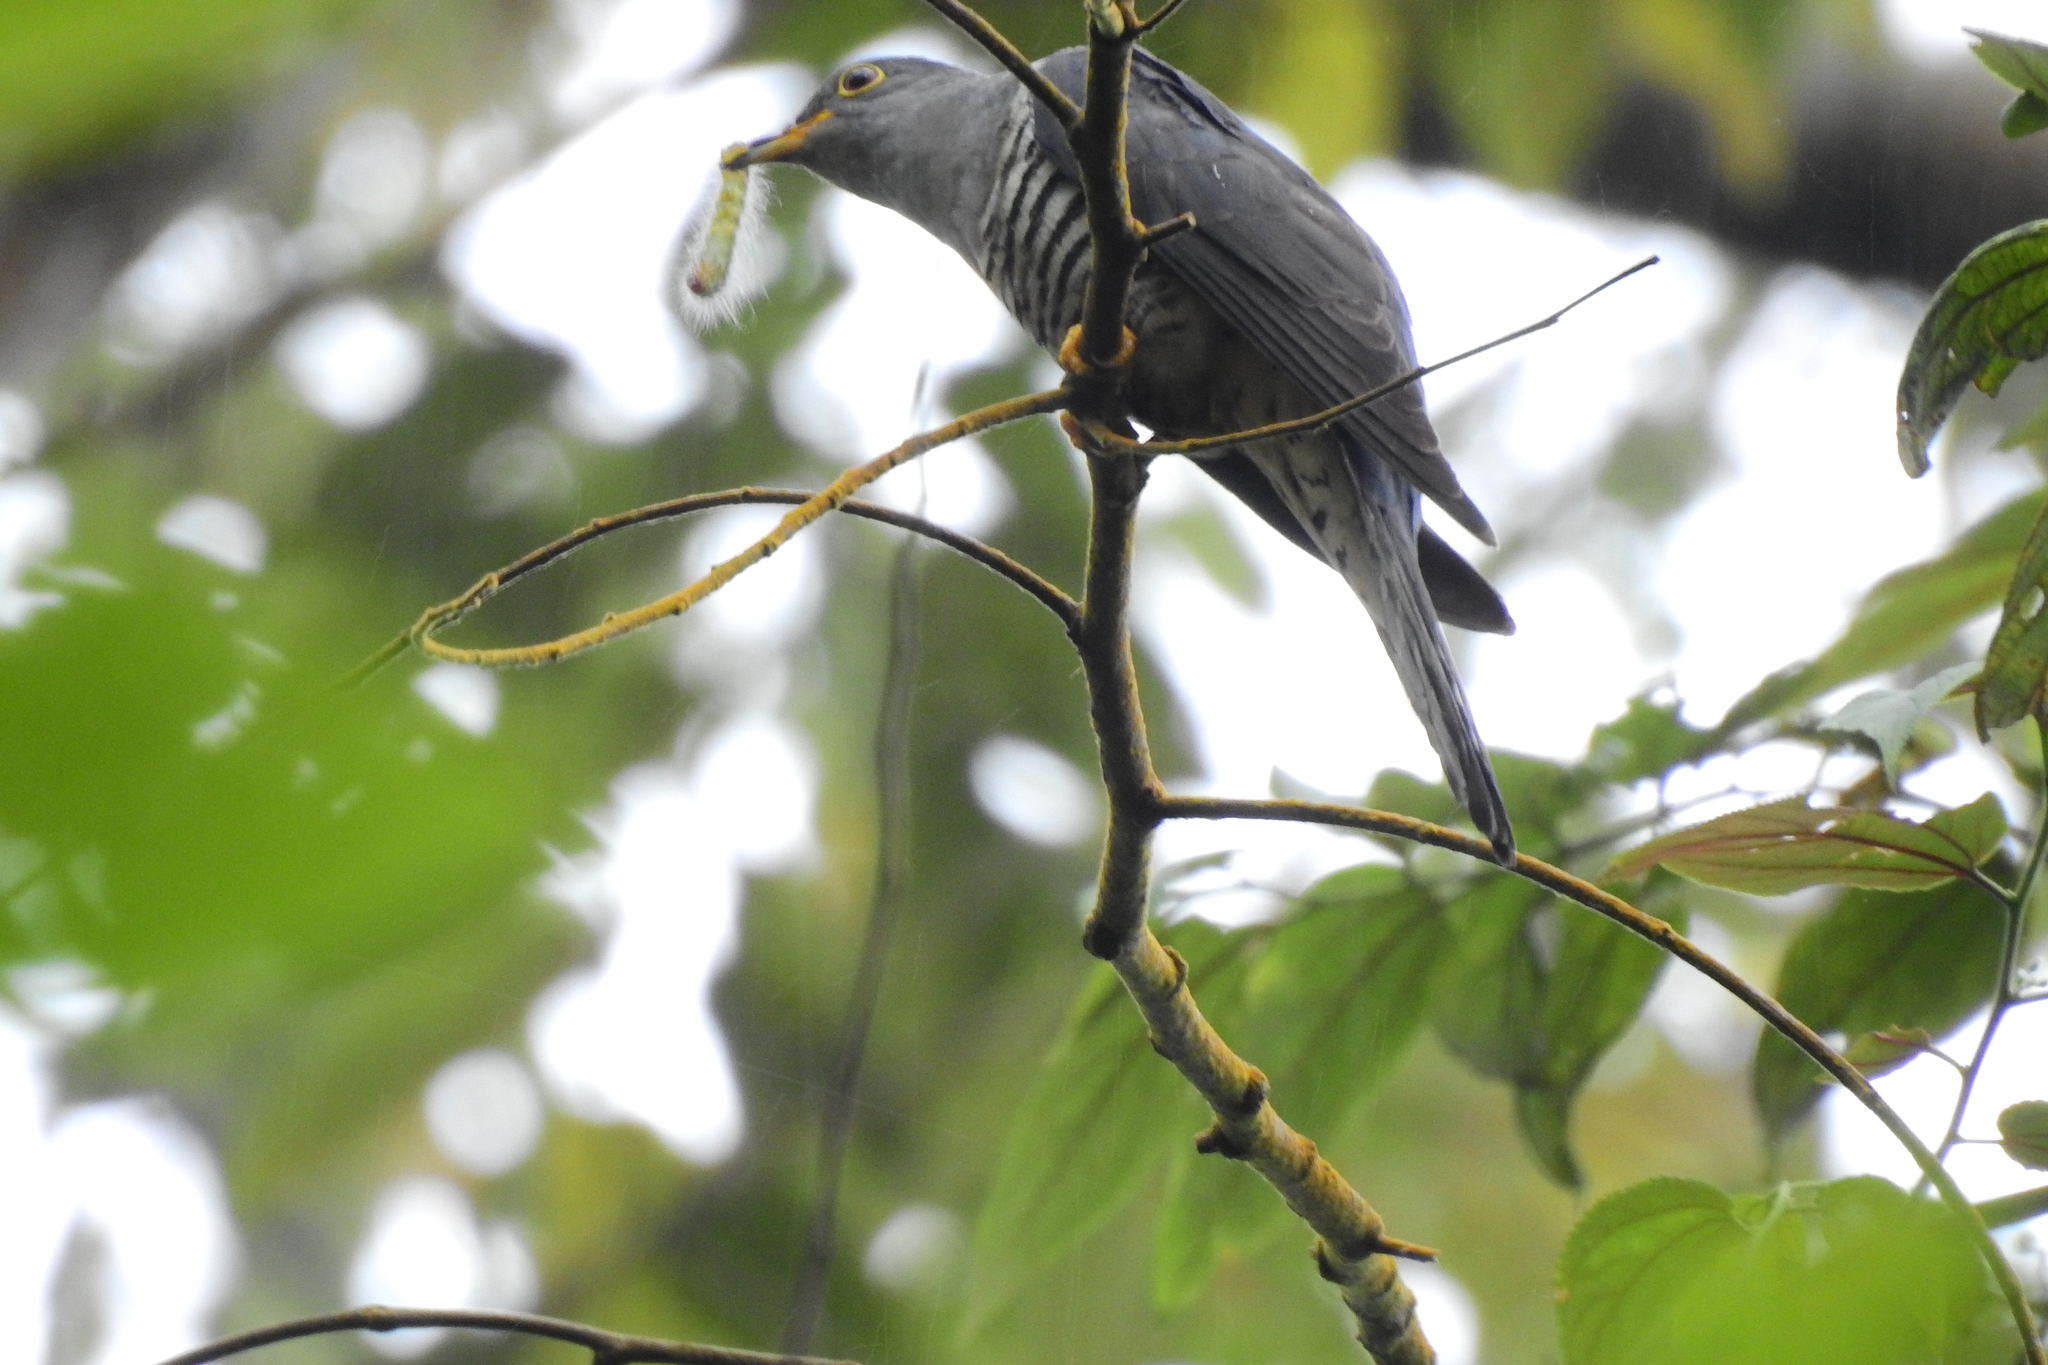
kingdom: Animalia
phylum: Chordata
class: Aves
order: Cuculiformes
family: Cuculidae
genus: Cuculus
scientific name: Cuculus lepidus
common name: Sunda cuckoo
